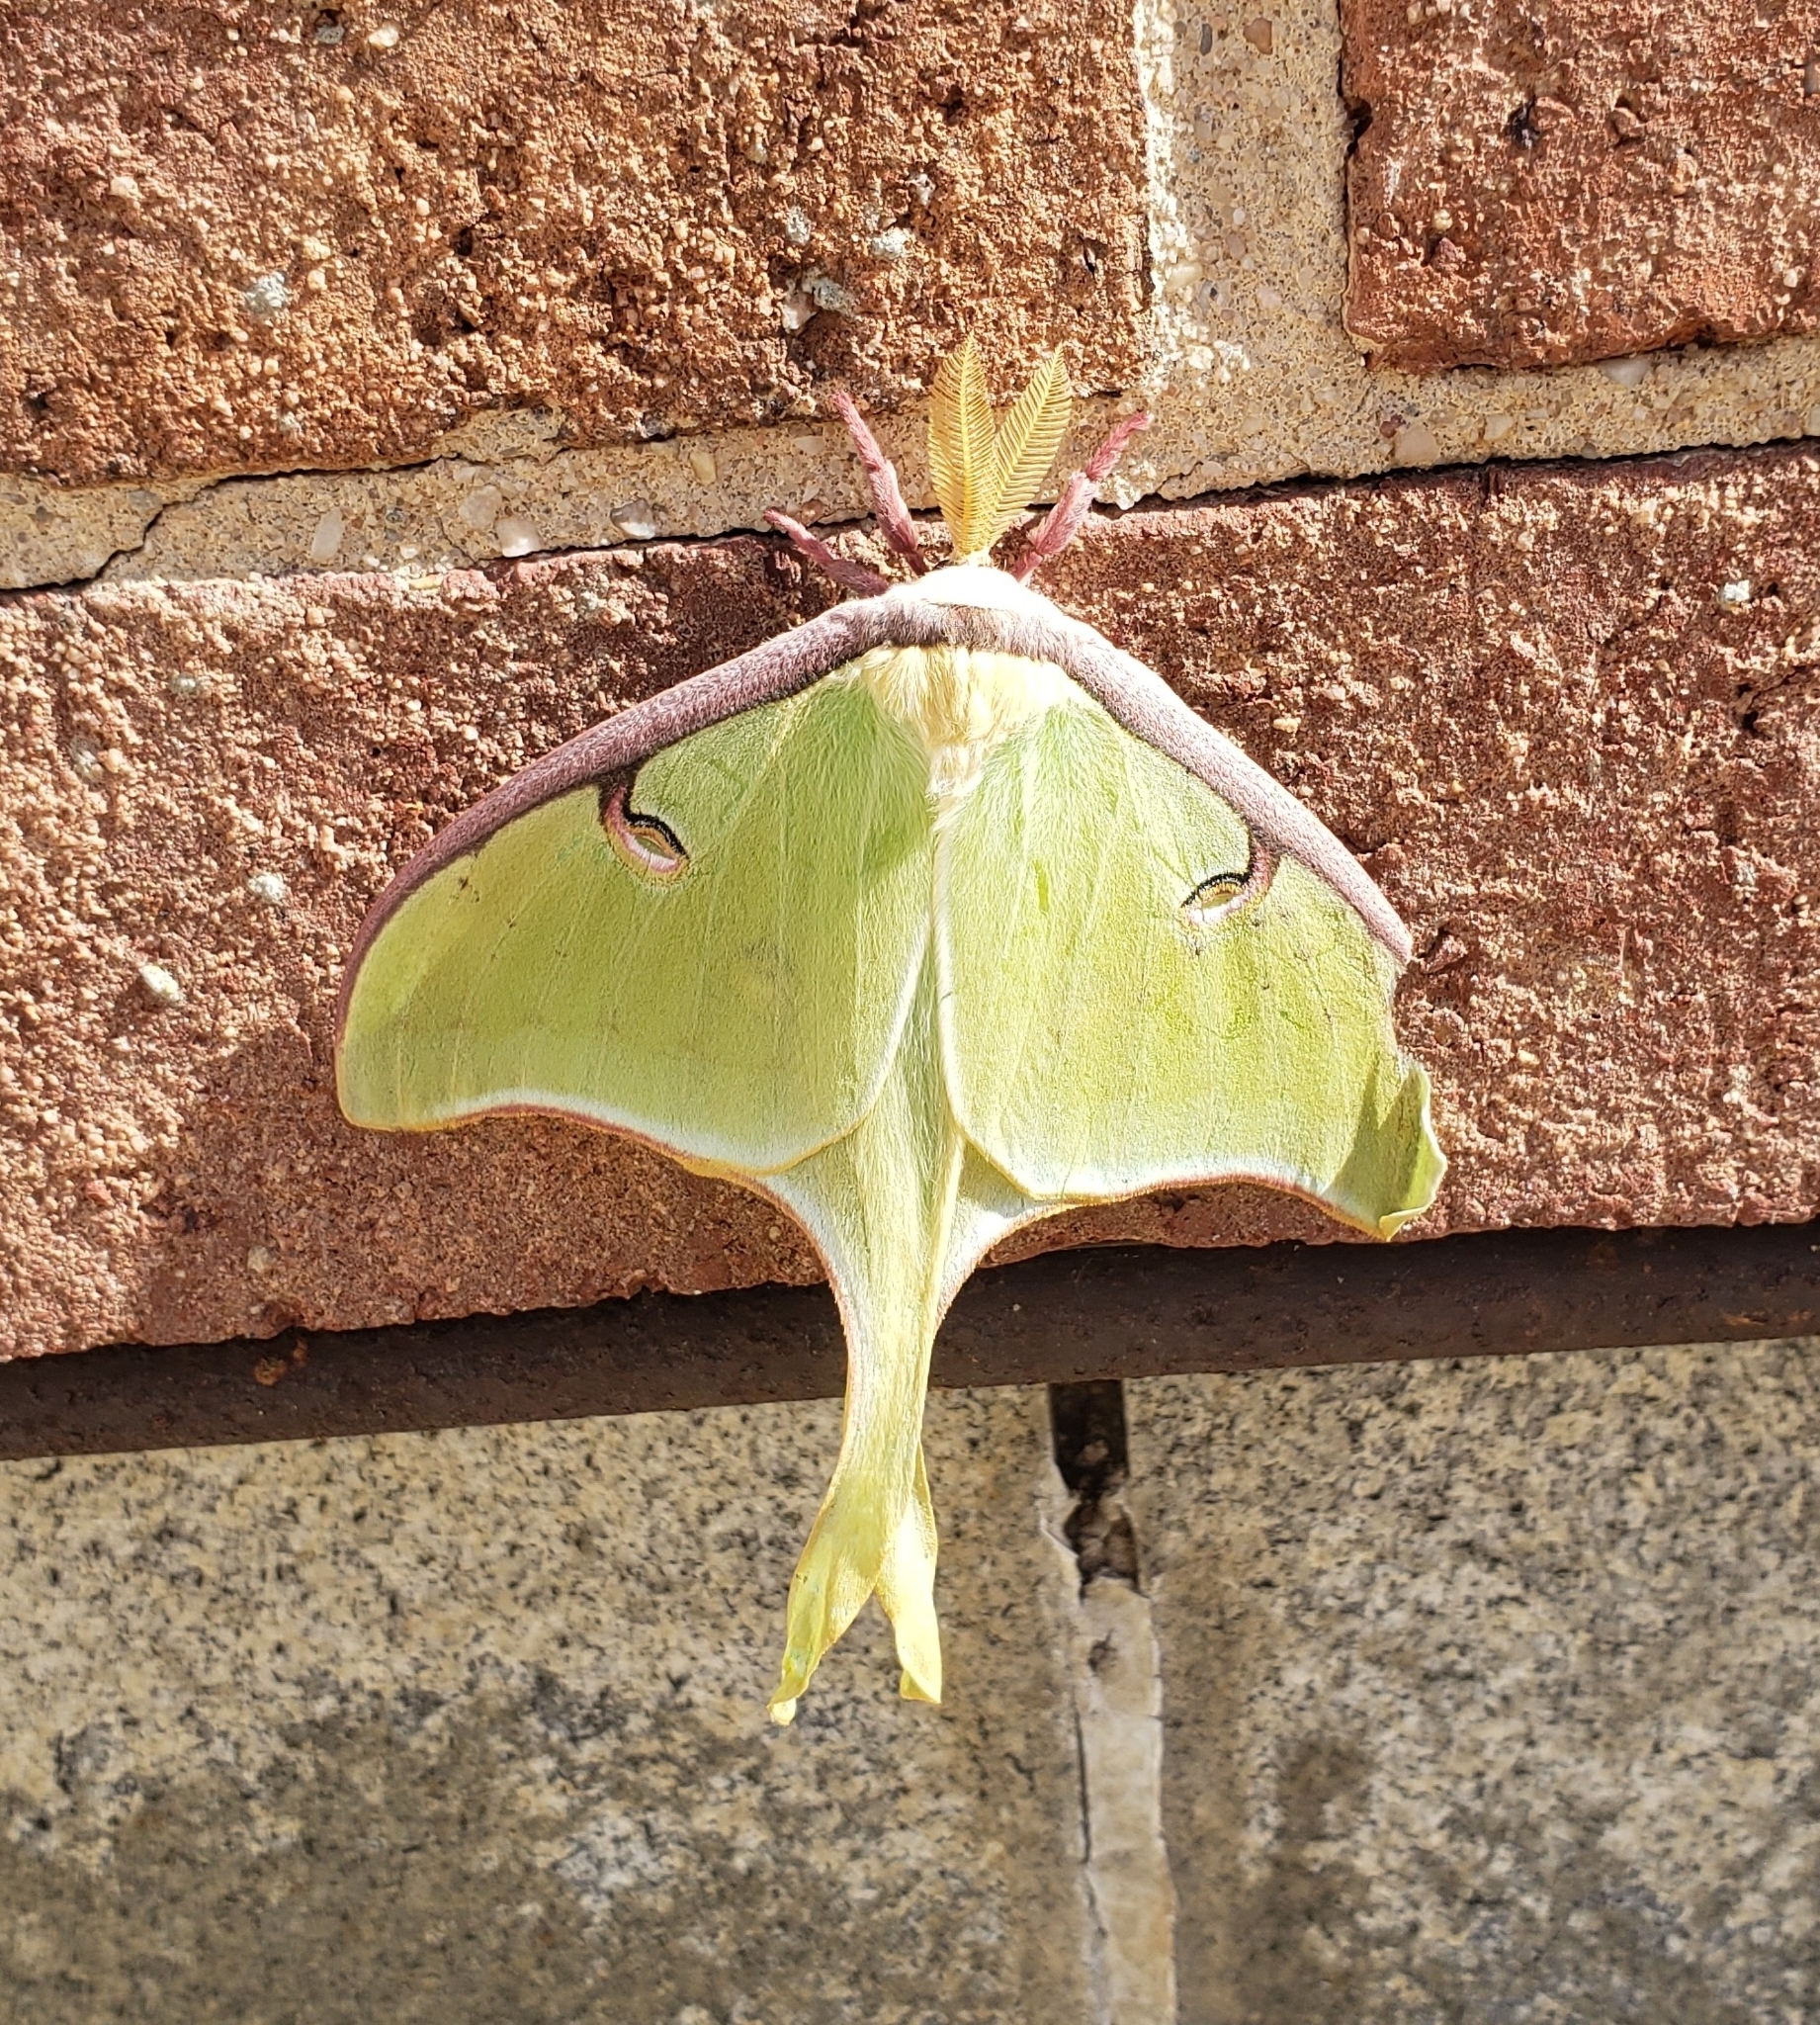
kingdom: Animalia
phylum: Arthropoda
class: Insecta
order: Lepidoptera
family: Saturniidae
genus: Actias
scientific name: Actias luna
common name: Luna moth
